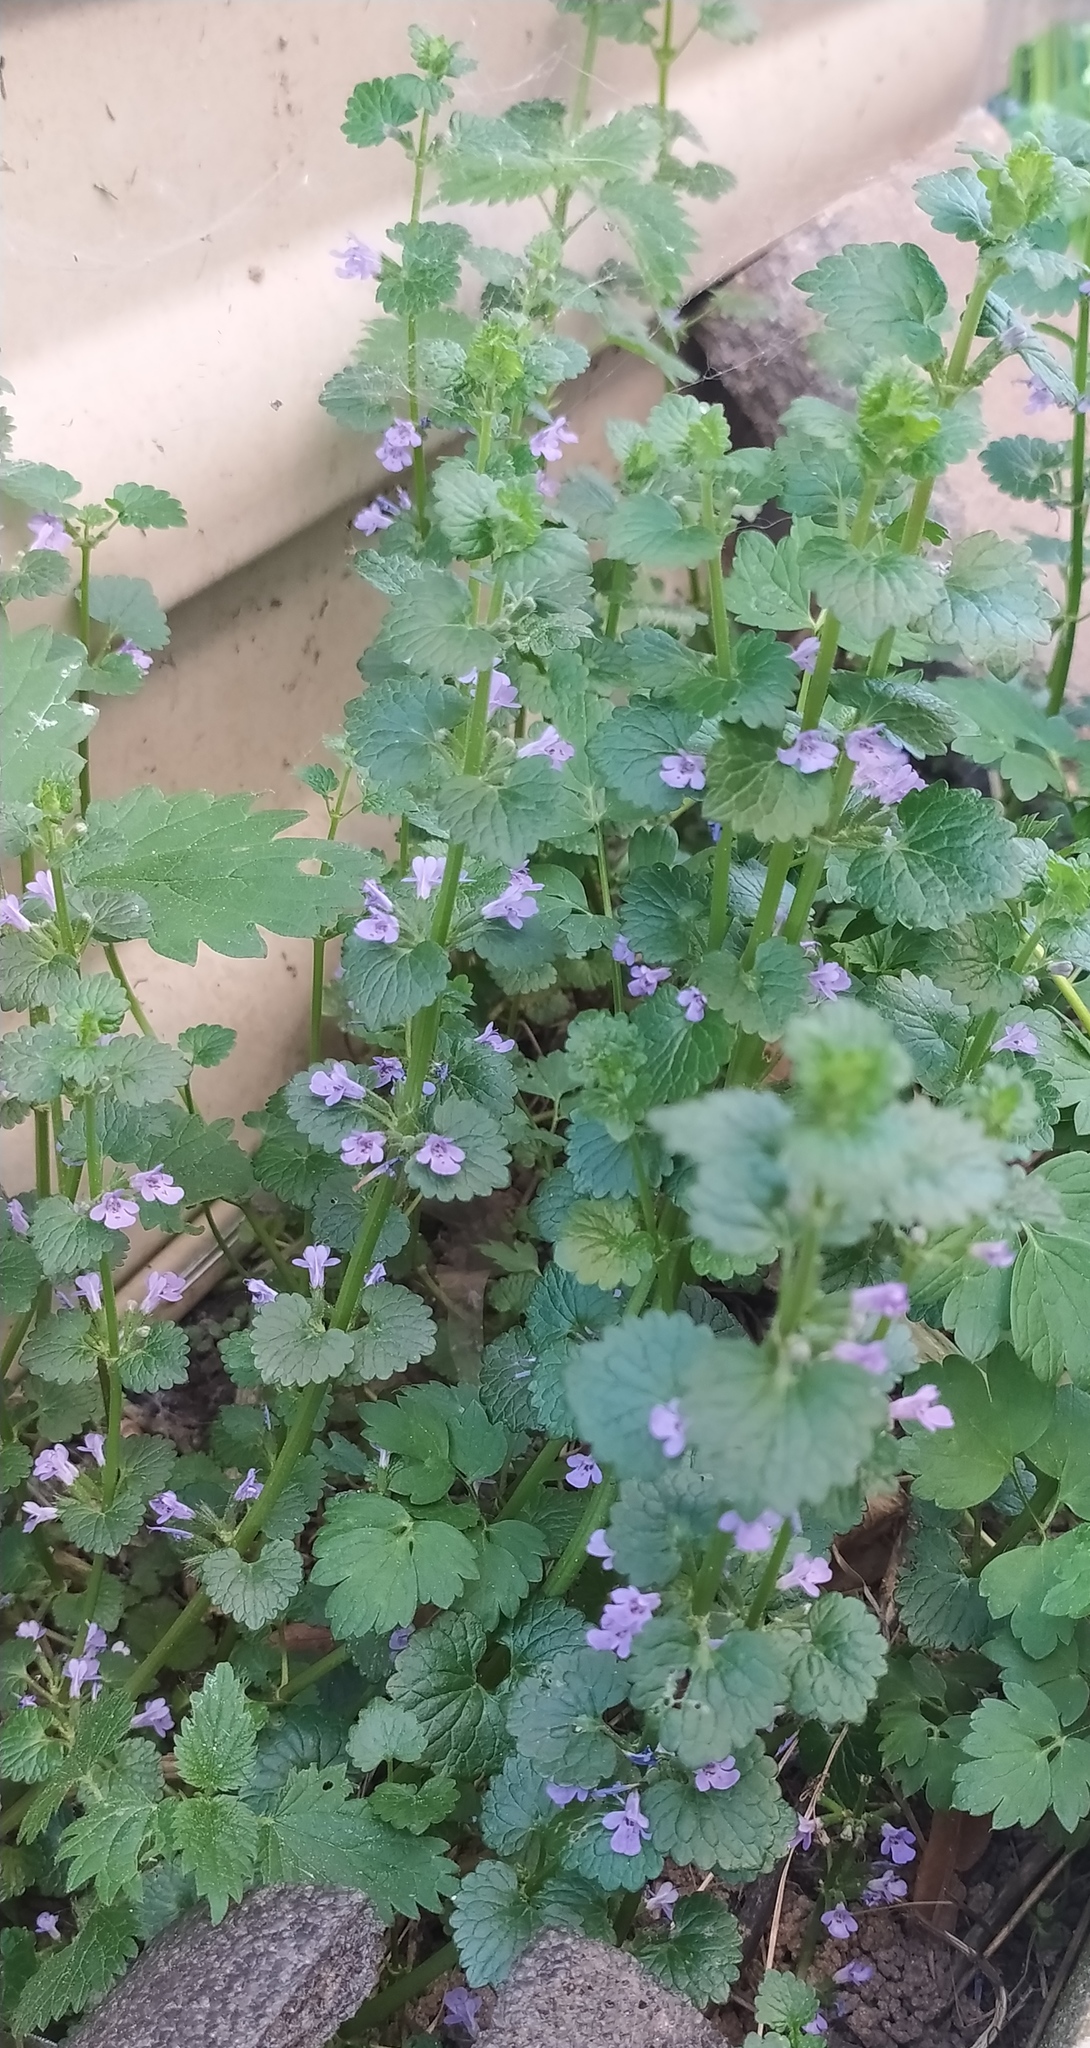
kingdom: Plantae
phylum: Tracheophyta
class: Magnoliopsida
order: Lamiales
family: Lamiaceae
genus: Glechoma
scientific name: Glechoma hederacea
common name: Ground ivy
